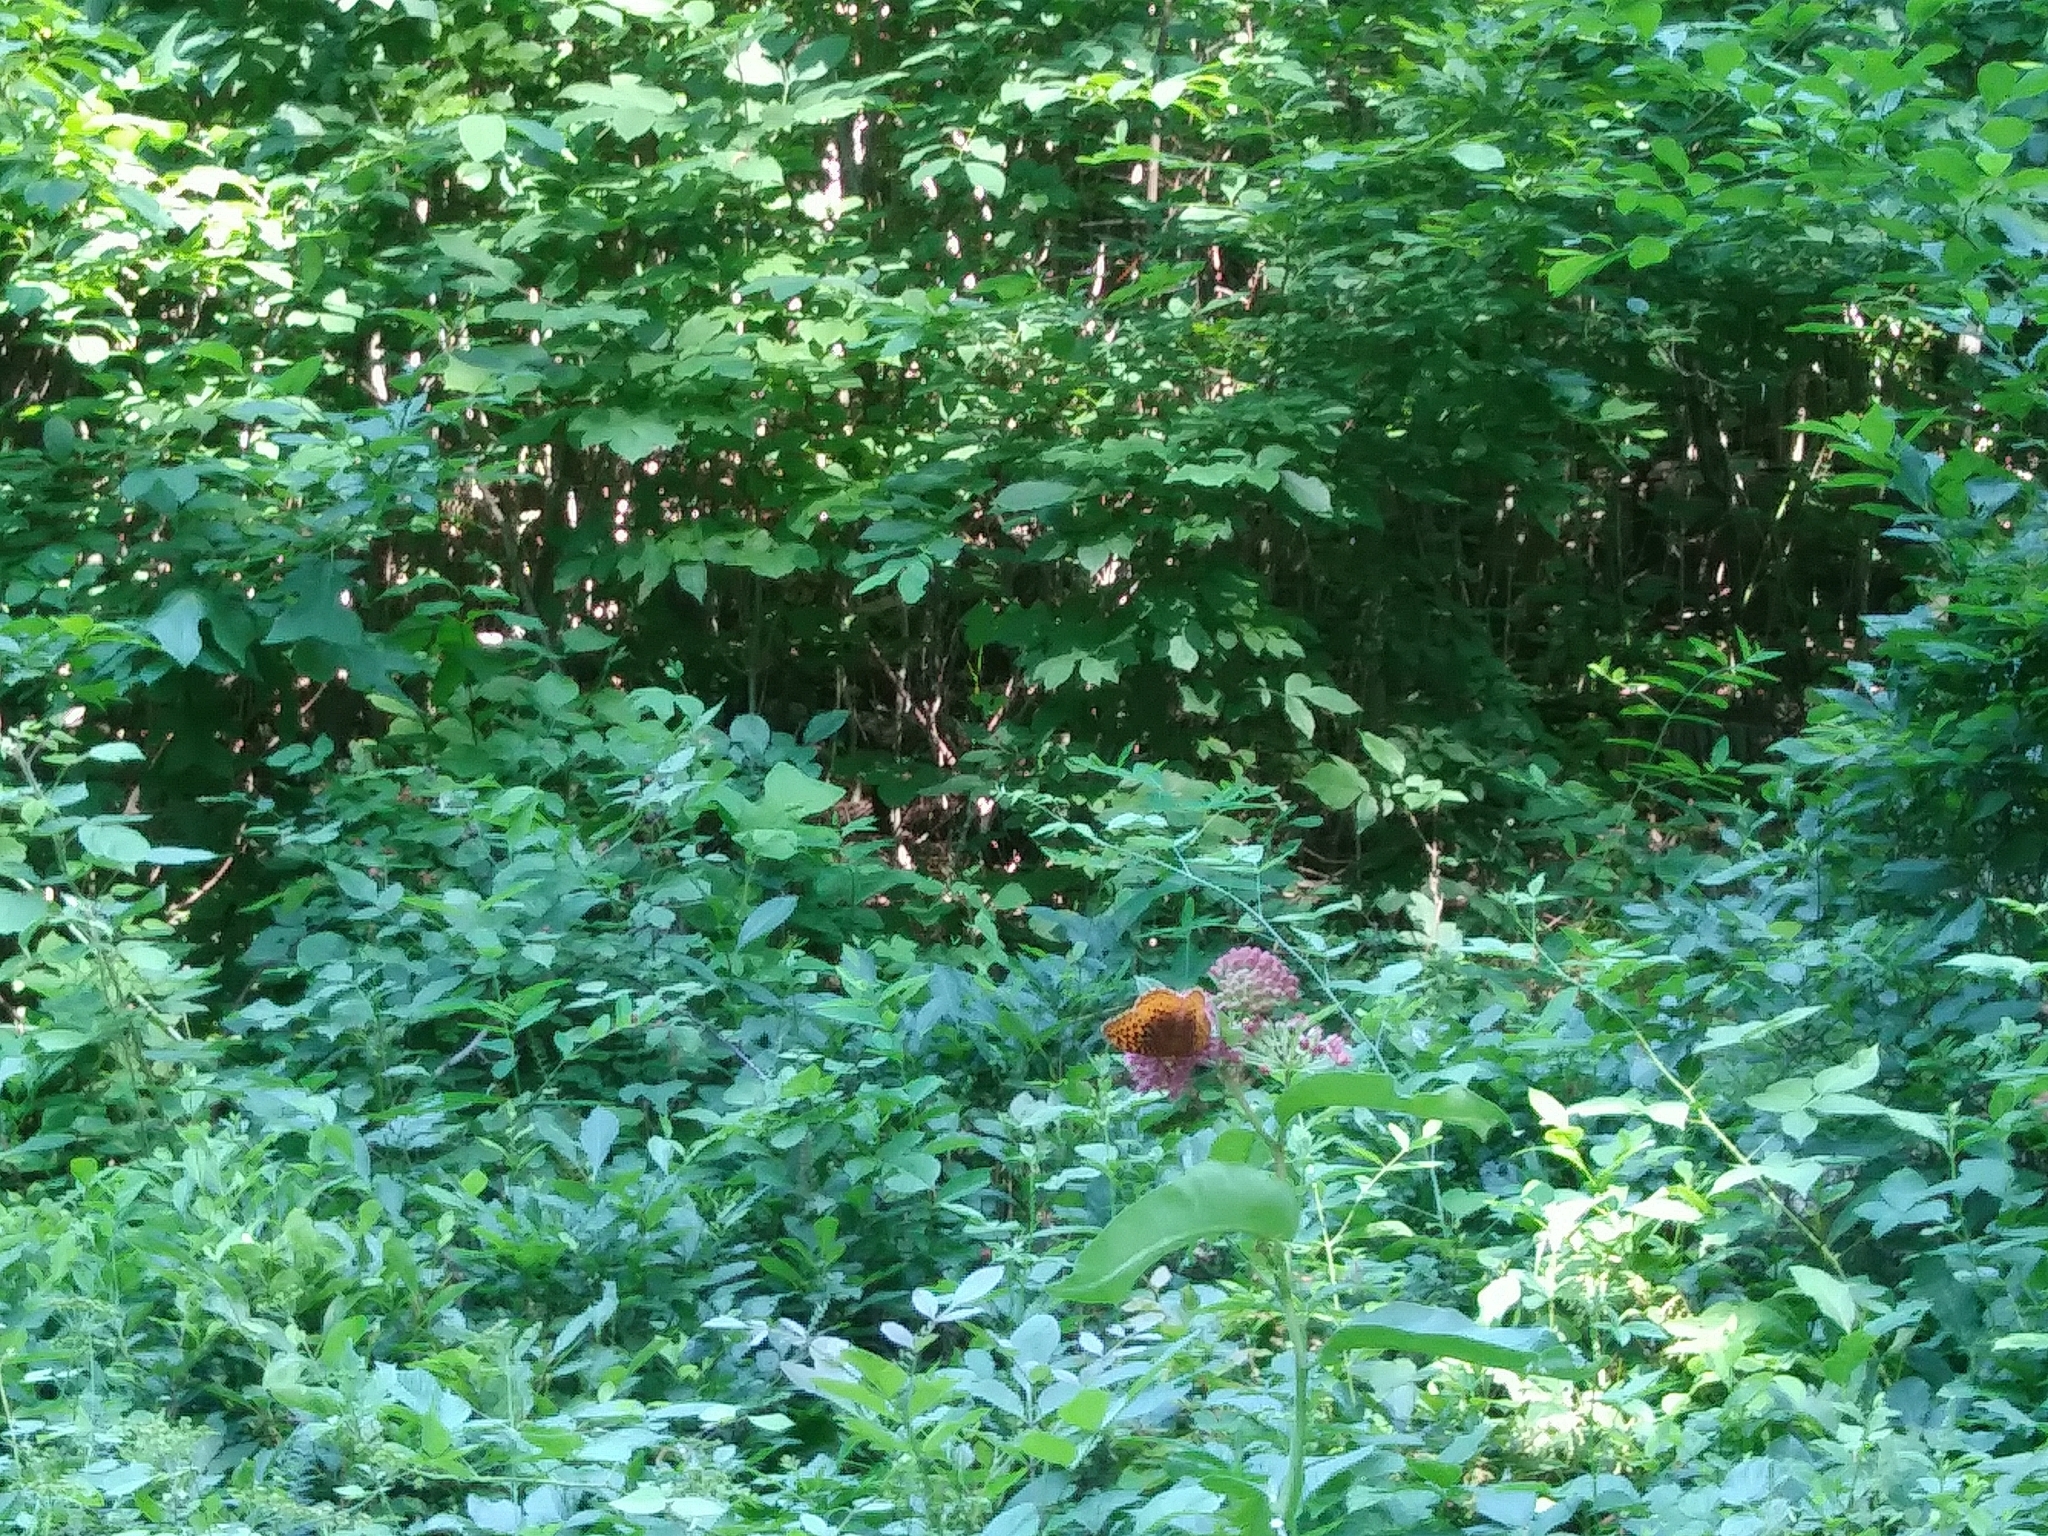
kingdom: Animalia
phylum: Arthropoda
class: Insecta
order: Lepidoptera
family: Nymphalidae
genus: Speyeria
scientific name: Speyeria cybele
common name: Great spangled fritillary
